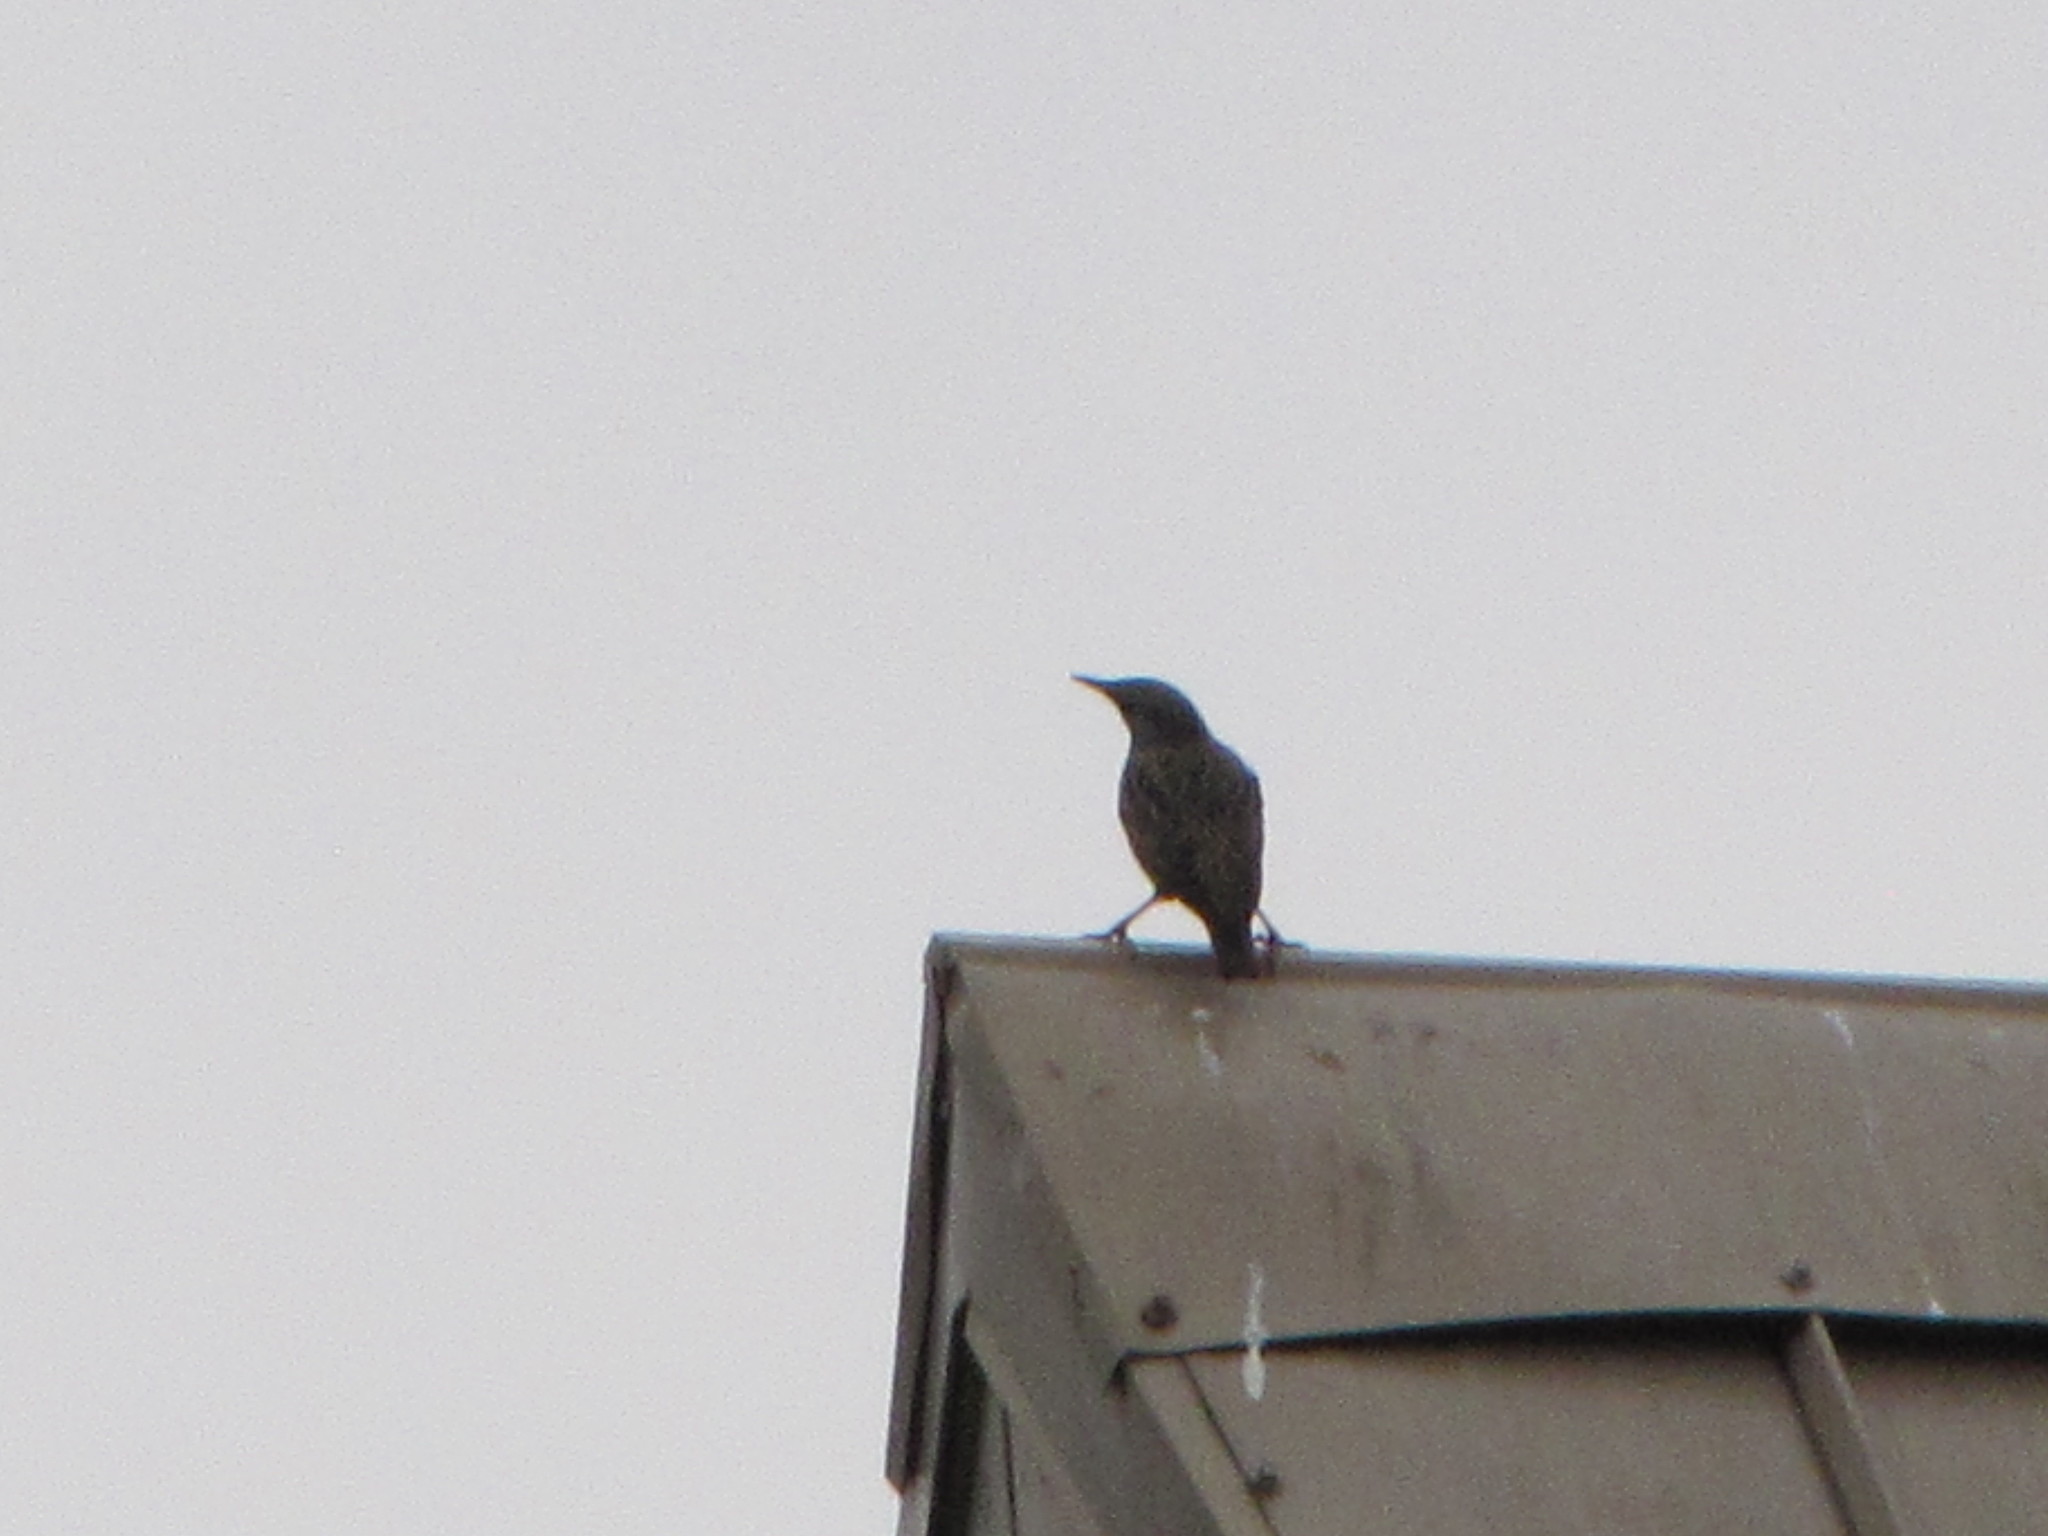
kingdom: Animalia
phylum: Chordata
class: Aves
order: Passeriformes
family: Sturnidae
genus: Sturnus
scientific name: Sturnus vulgaris
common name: Common starling
